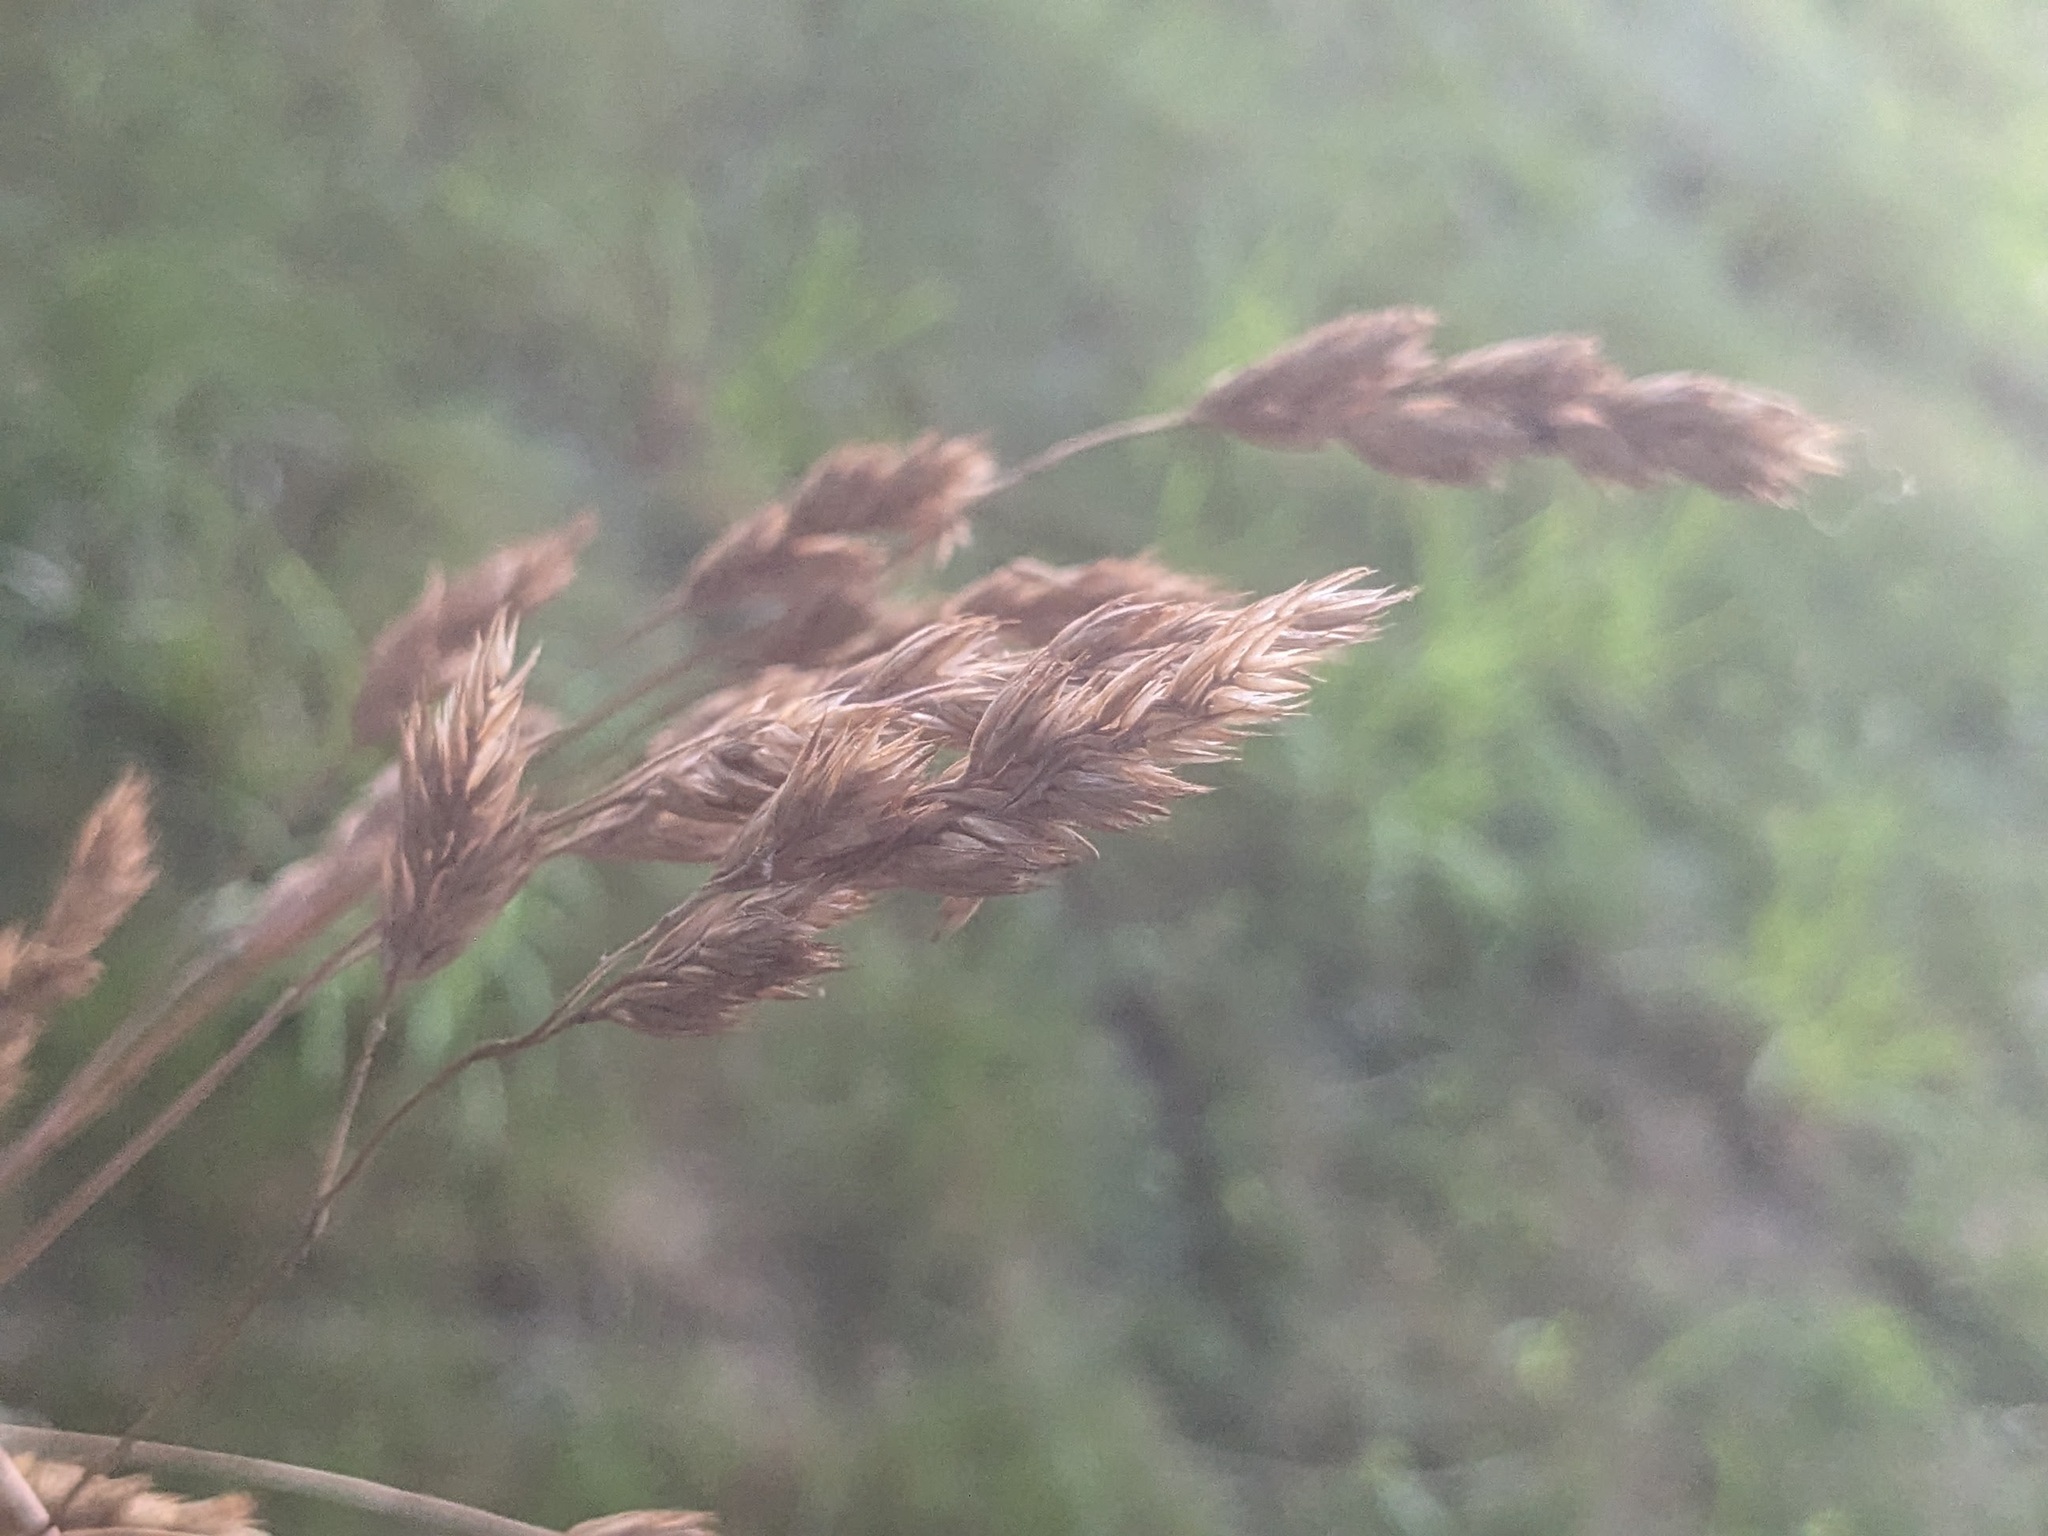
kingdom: Plantae
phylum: Tracheophyta
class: Liliopsida
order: Poales
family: Poaceae
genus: Dactylis
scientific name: Dactylis glomerata
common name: Orchardgrass
